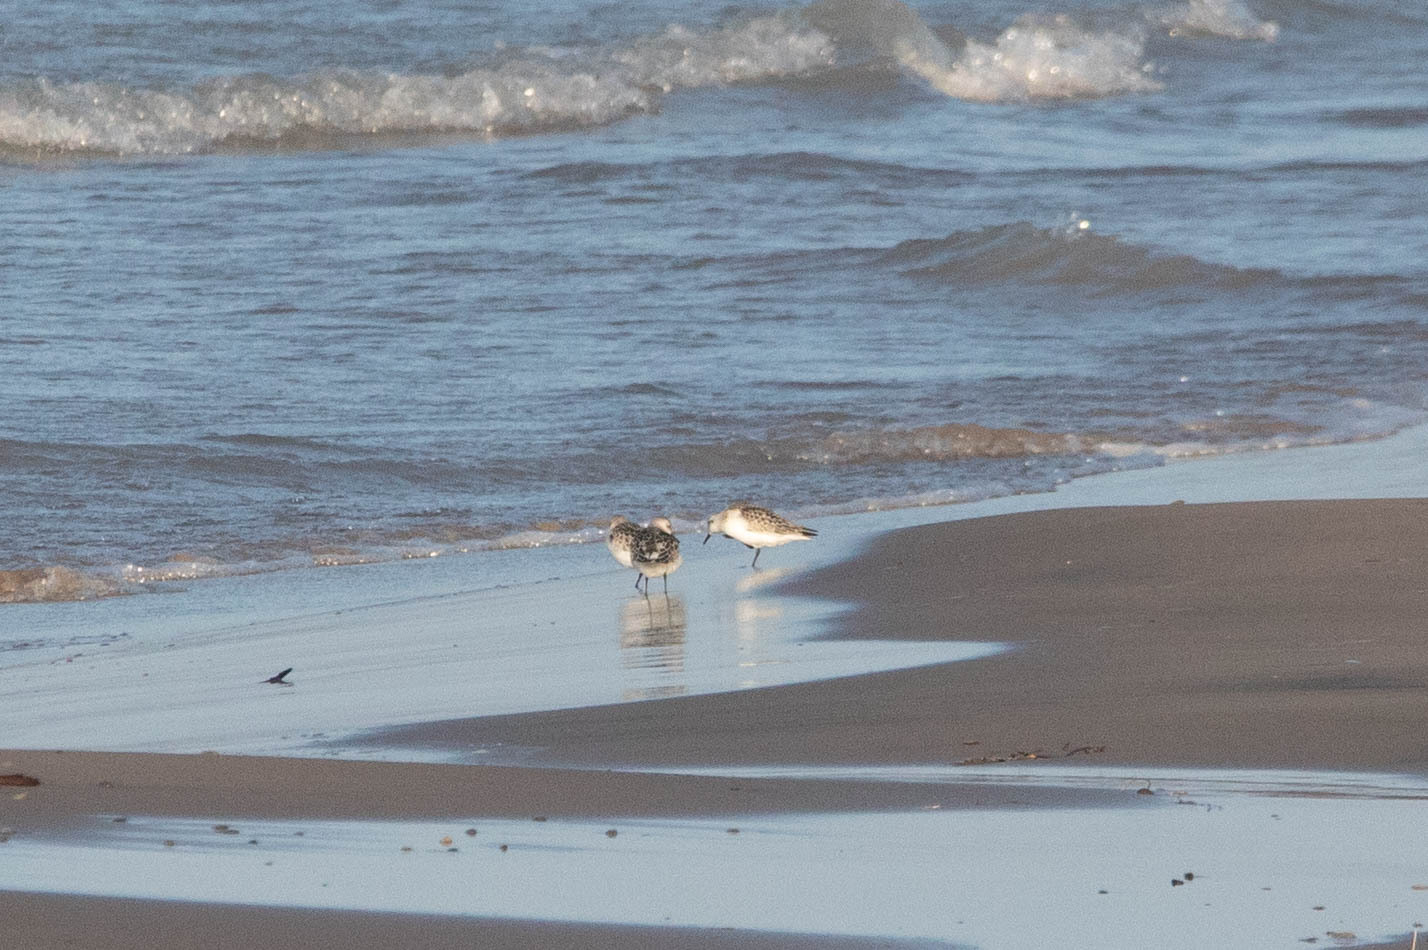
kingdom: Animalia
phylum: Chordata
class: Aves
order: Charadriiformes
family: Scolopacidae
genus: Calidris
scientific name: Calidris alba
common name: Sanderling
